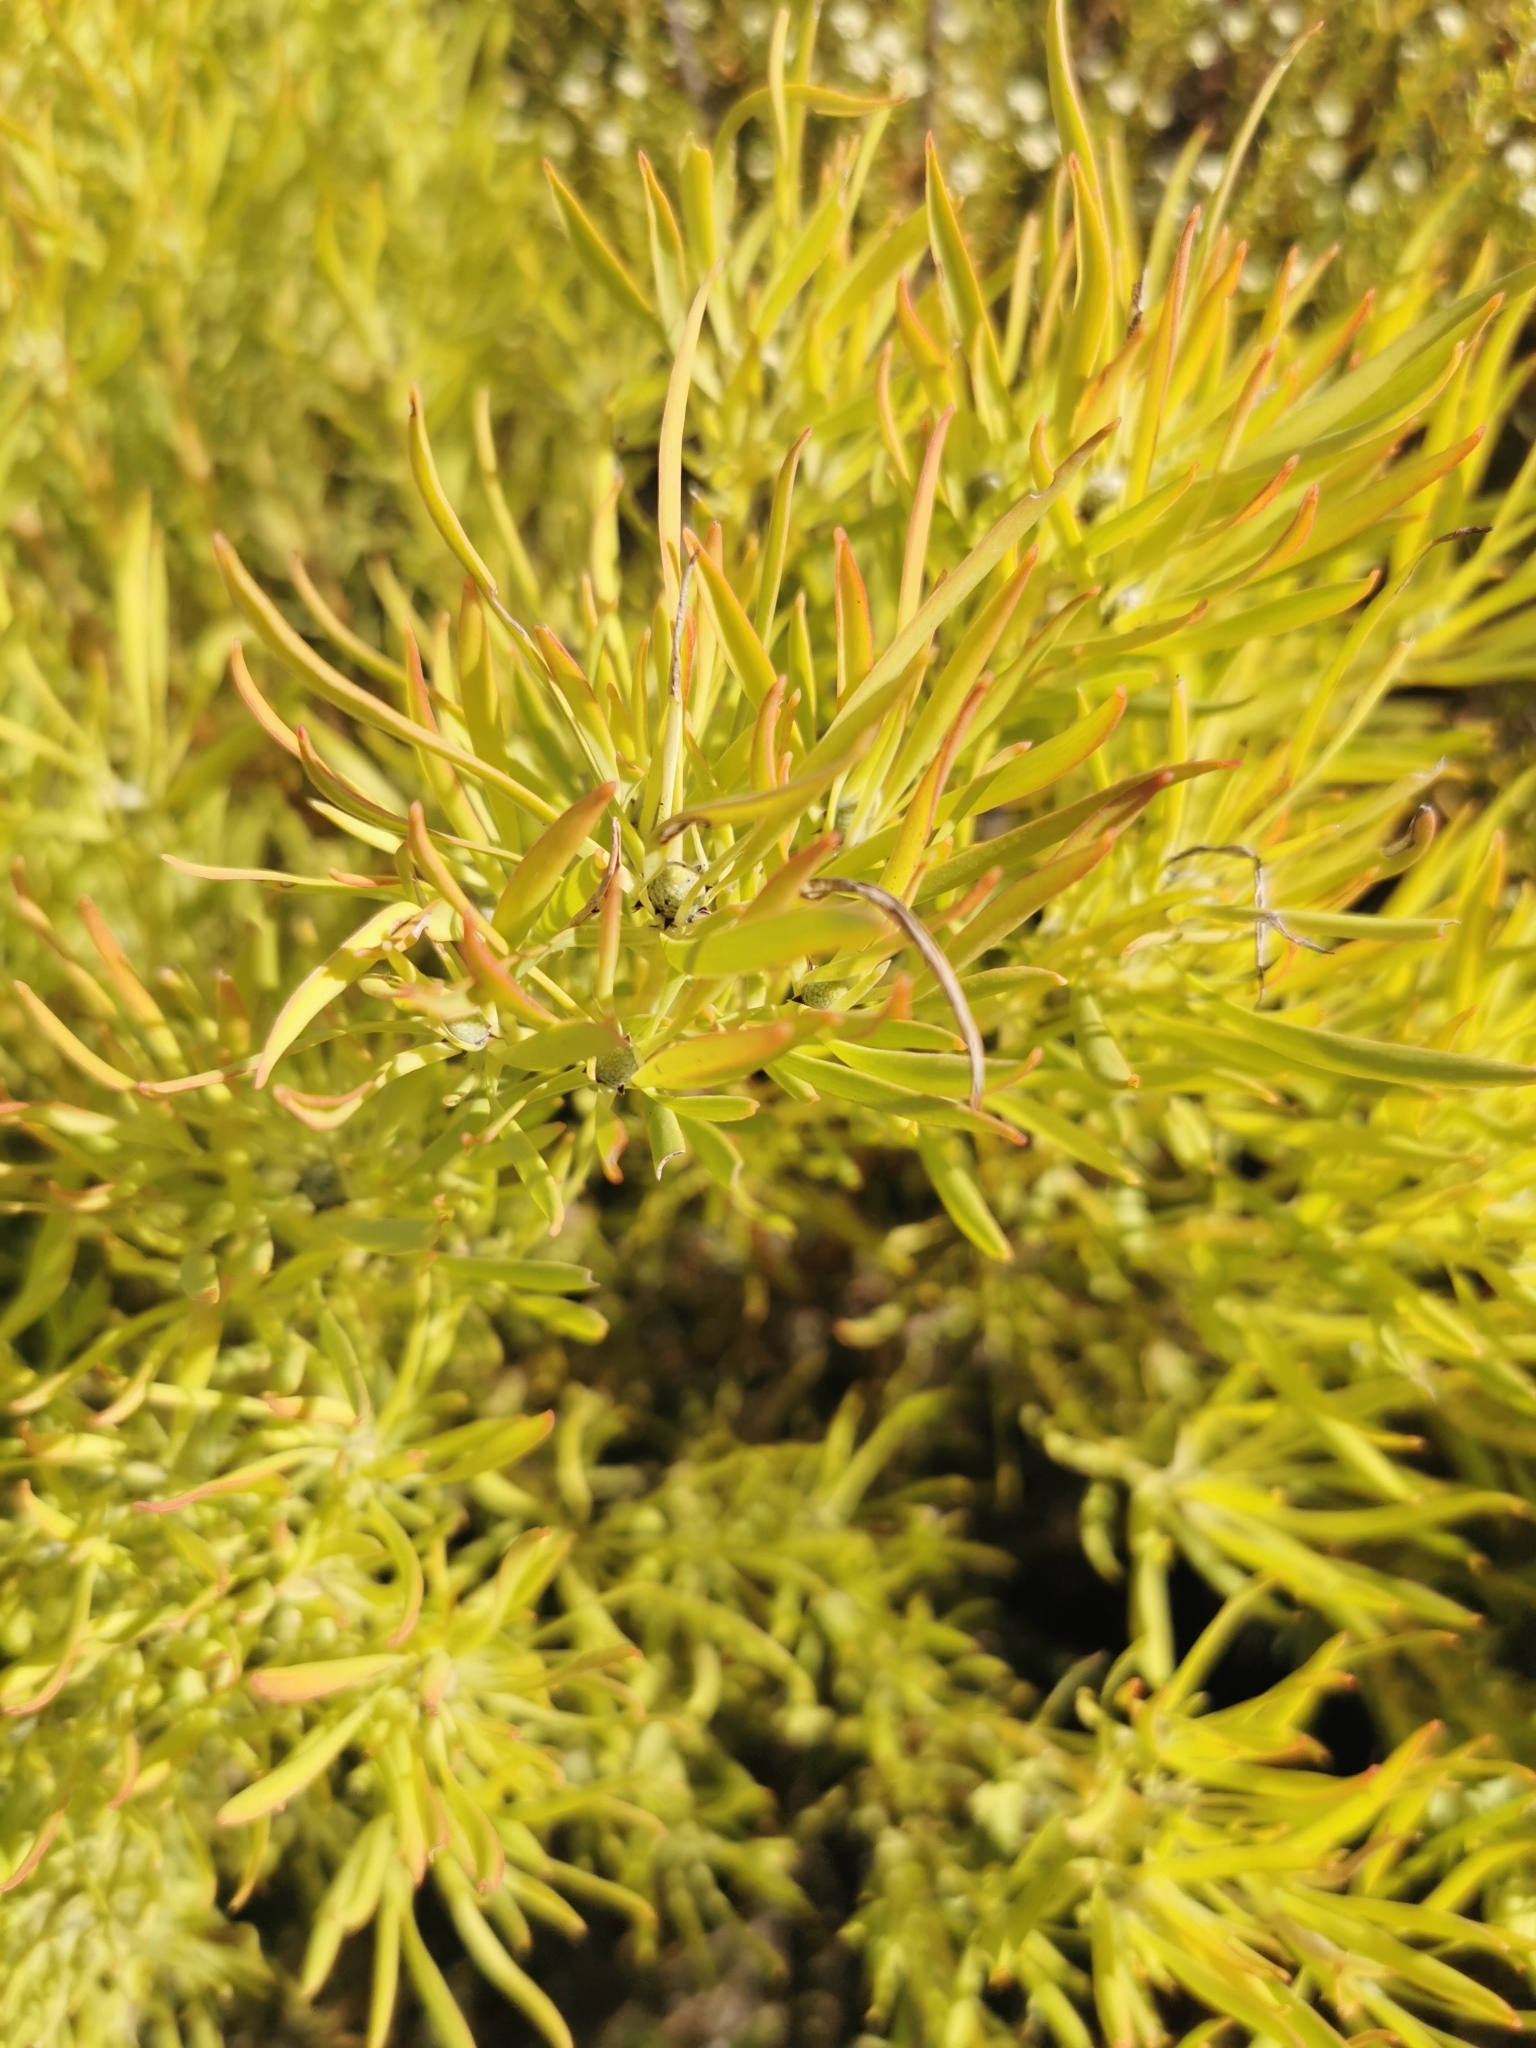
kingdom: Plantae
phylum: Tracheophyta
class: Magnoliopsida
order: Proteales
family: Proteaceae
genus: Leucadendron
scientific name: Leucadendron salignum
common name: Common sunshine conebush
